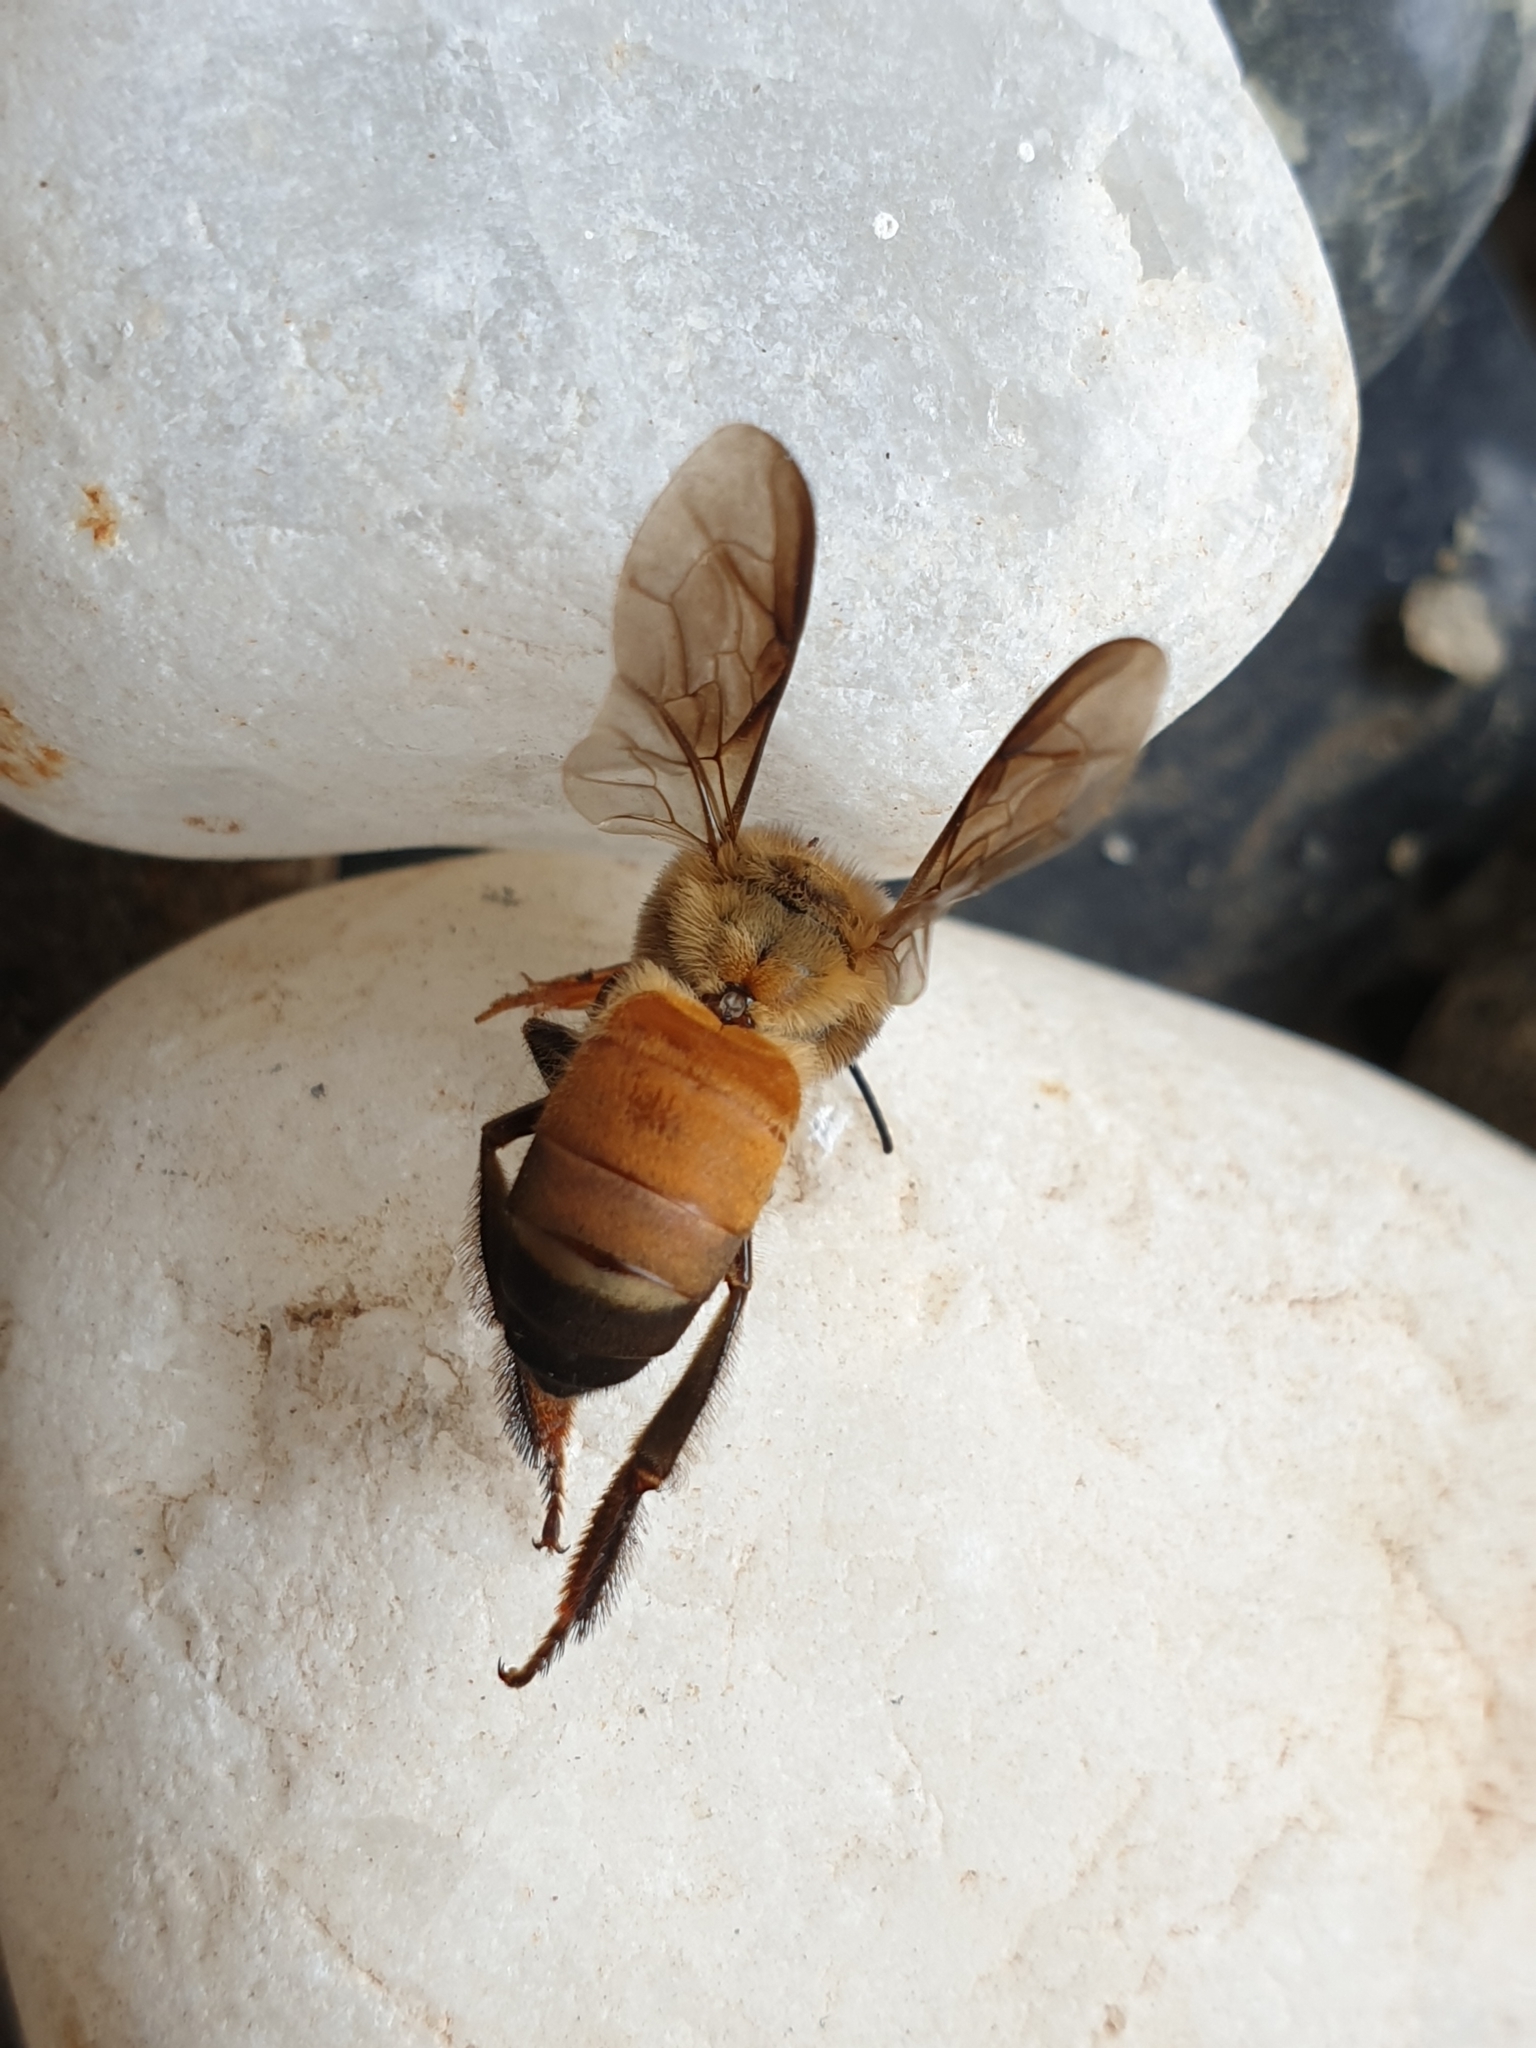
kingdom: Animalia
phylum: Arthropoda
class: Insecta
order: Hymenoptera
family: Apidae
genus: Apis
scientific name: Apis dorsata
